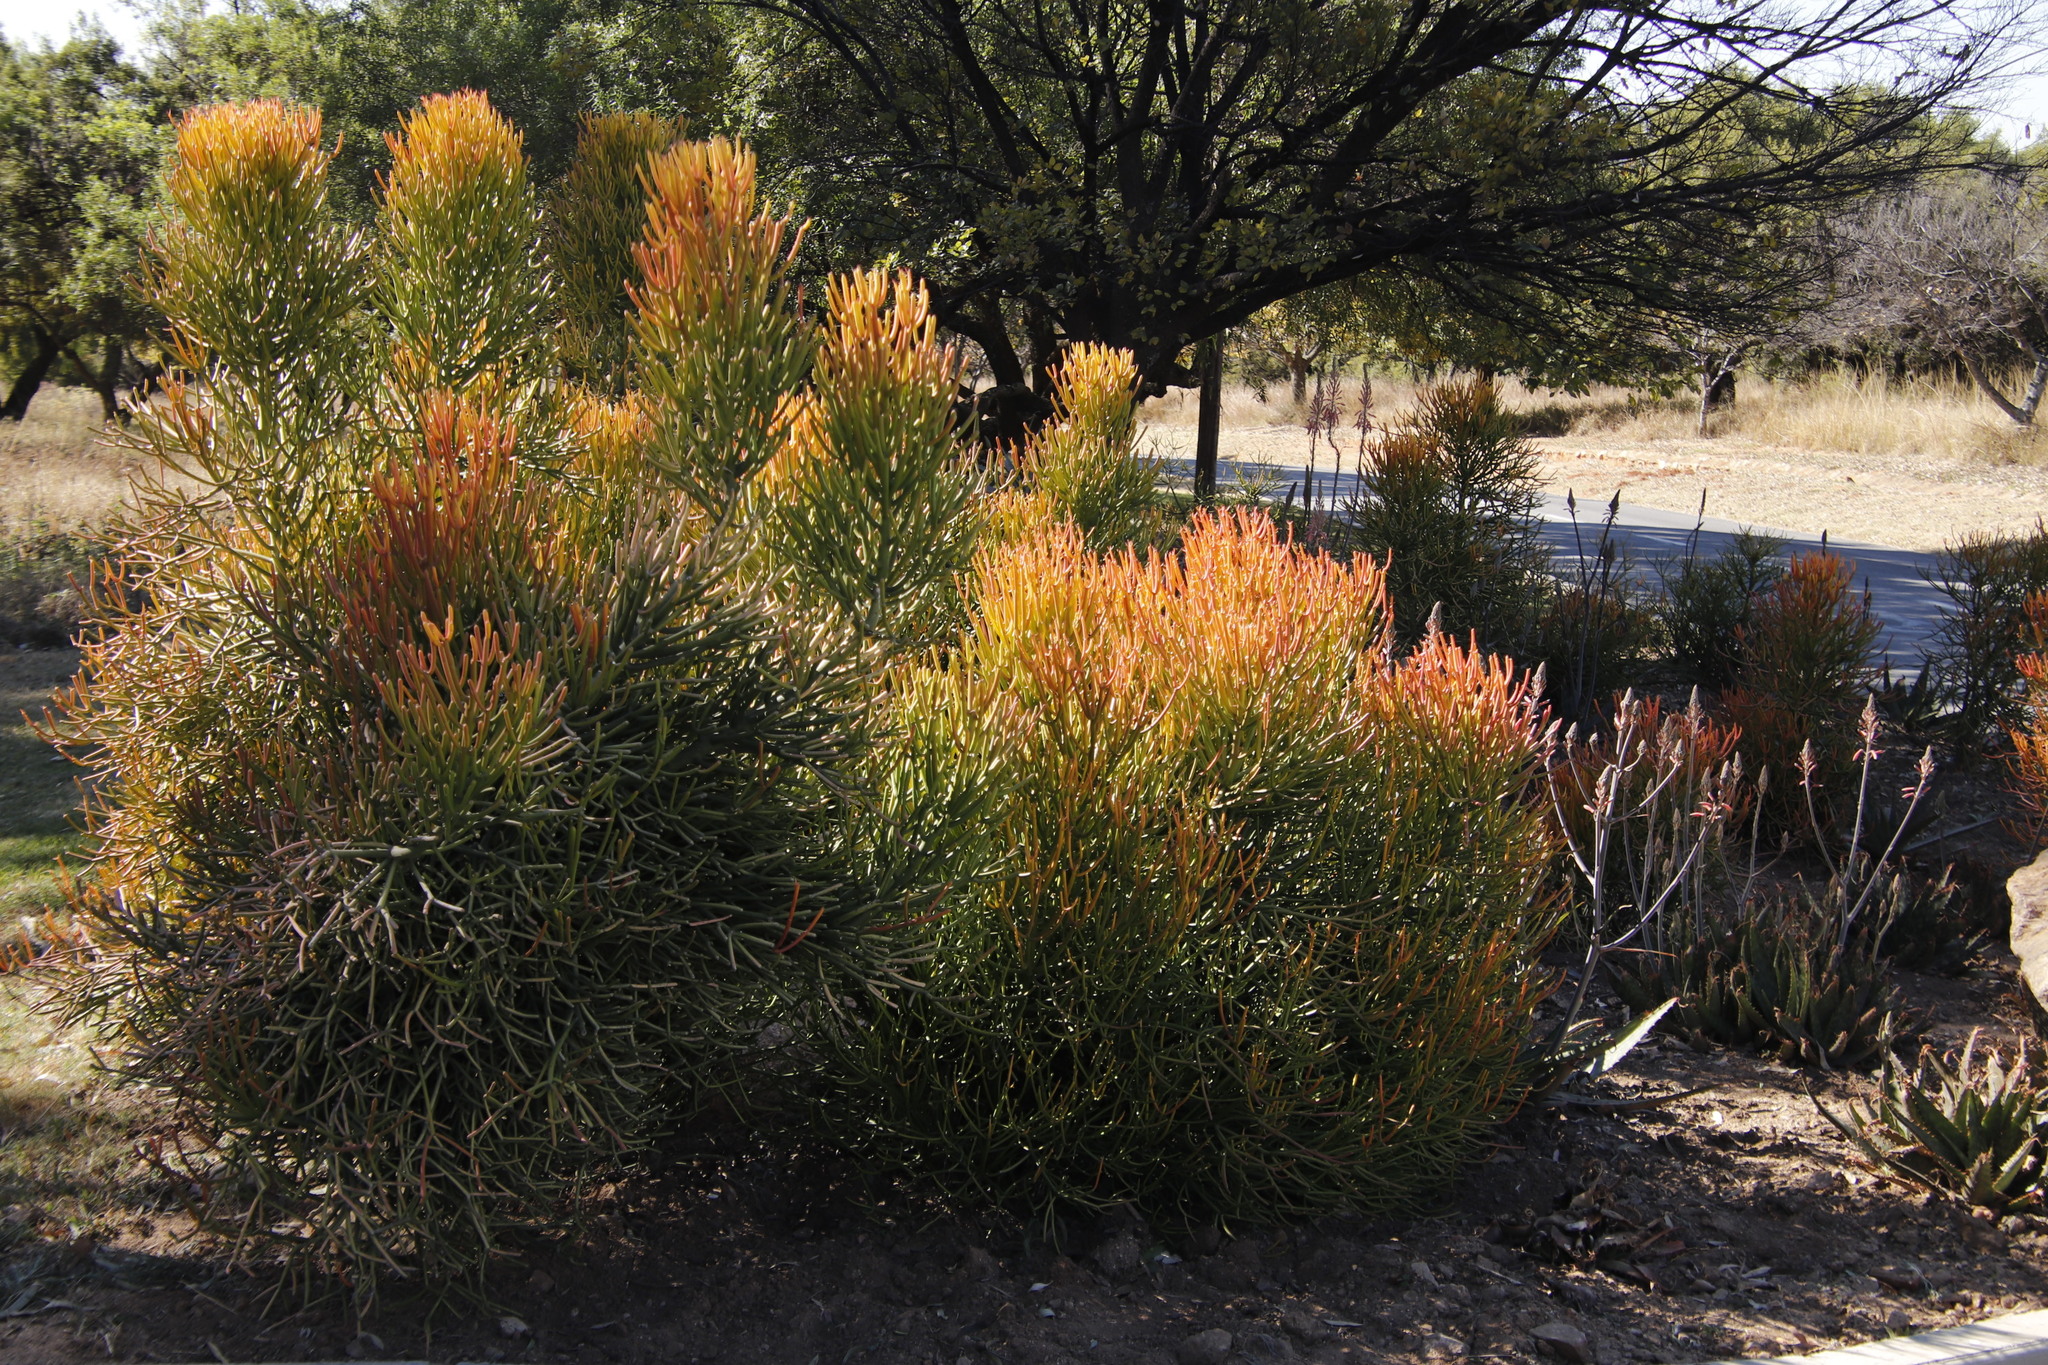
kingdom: Plantae
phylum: Tracheophyta
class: Magnoliopsida
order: Malpighiales
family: Euphorbiaceae
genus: Euphorbia
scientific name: Euphorbia tirucalli
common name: Indiantree spurge
